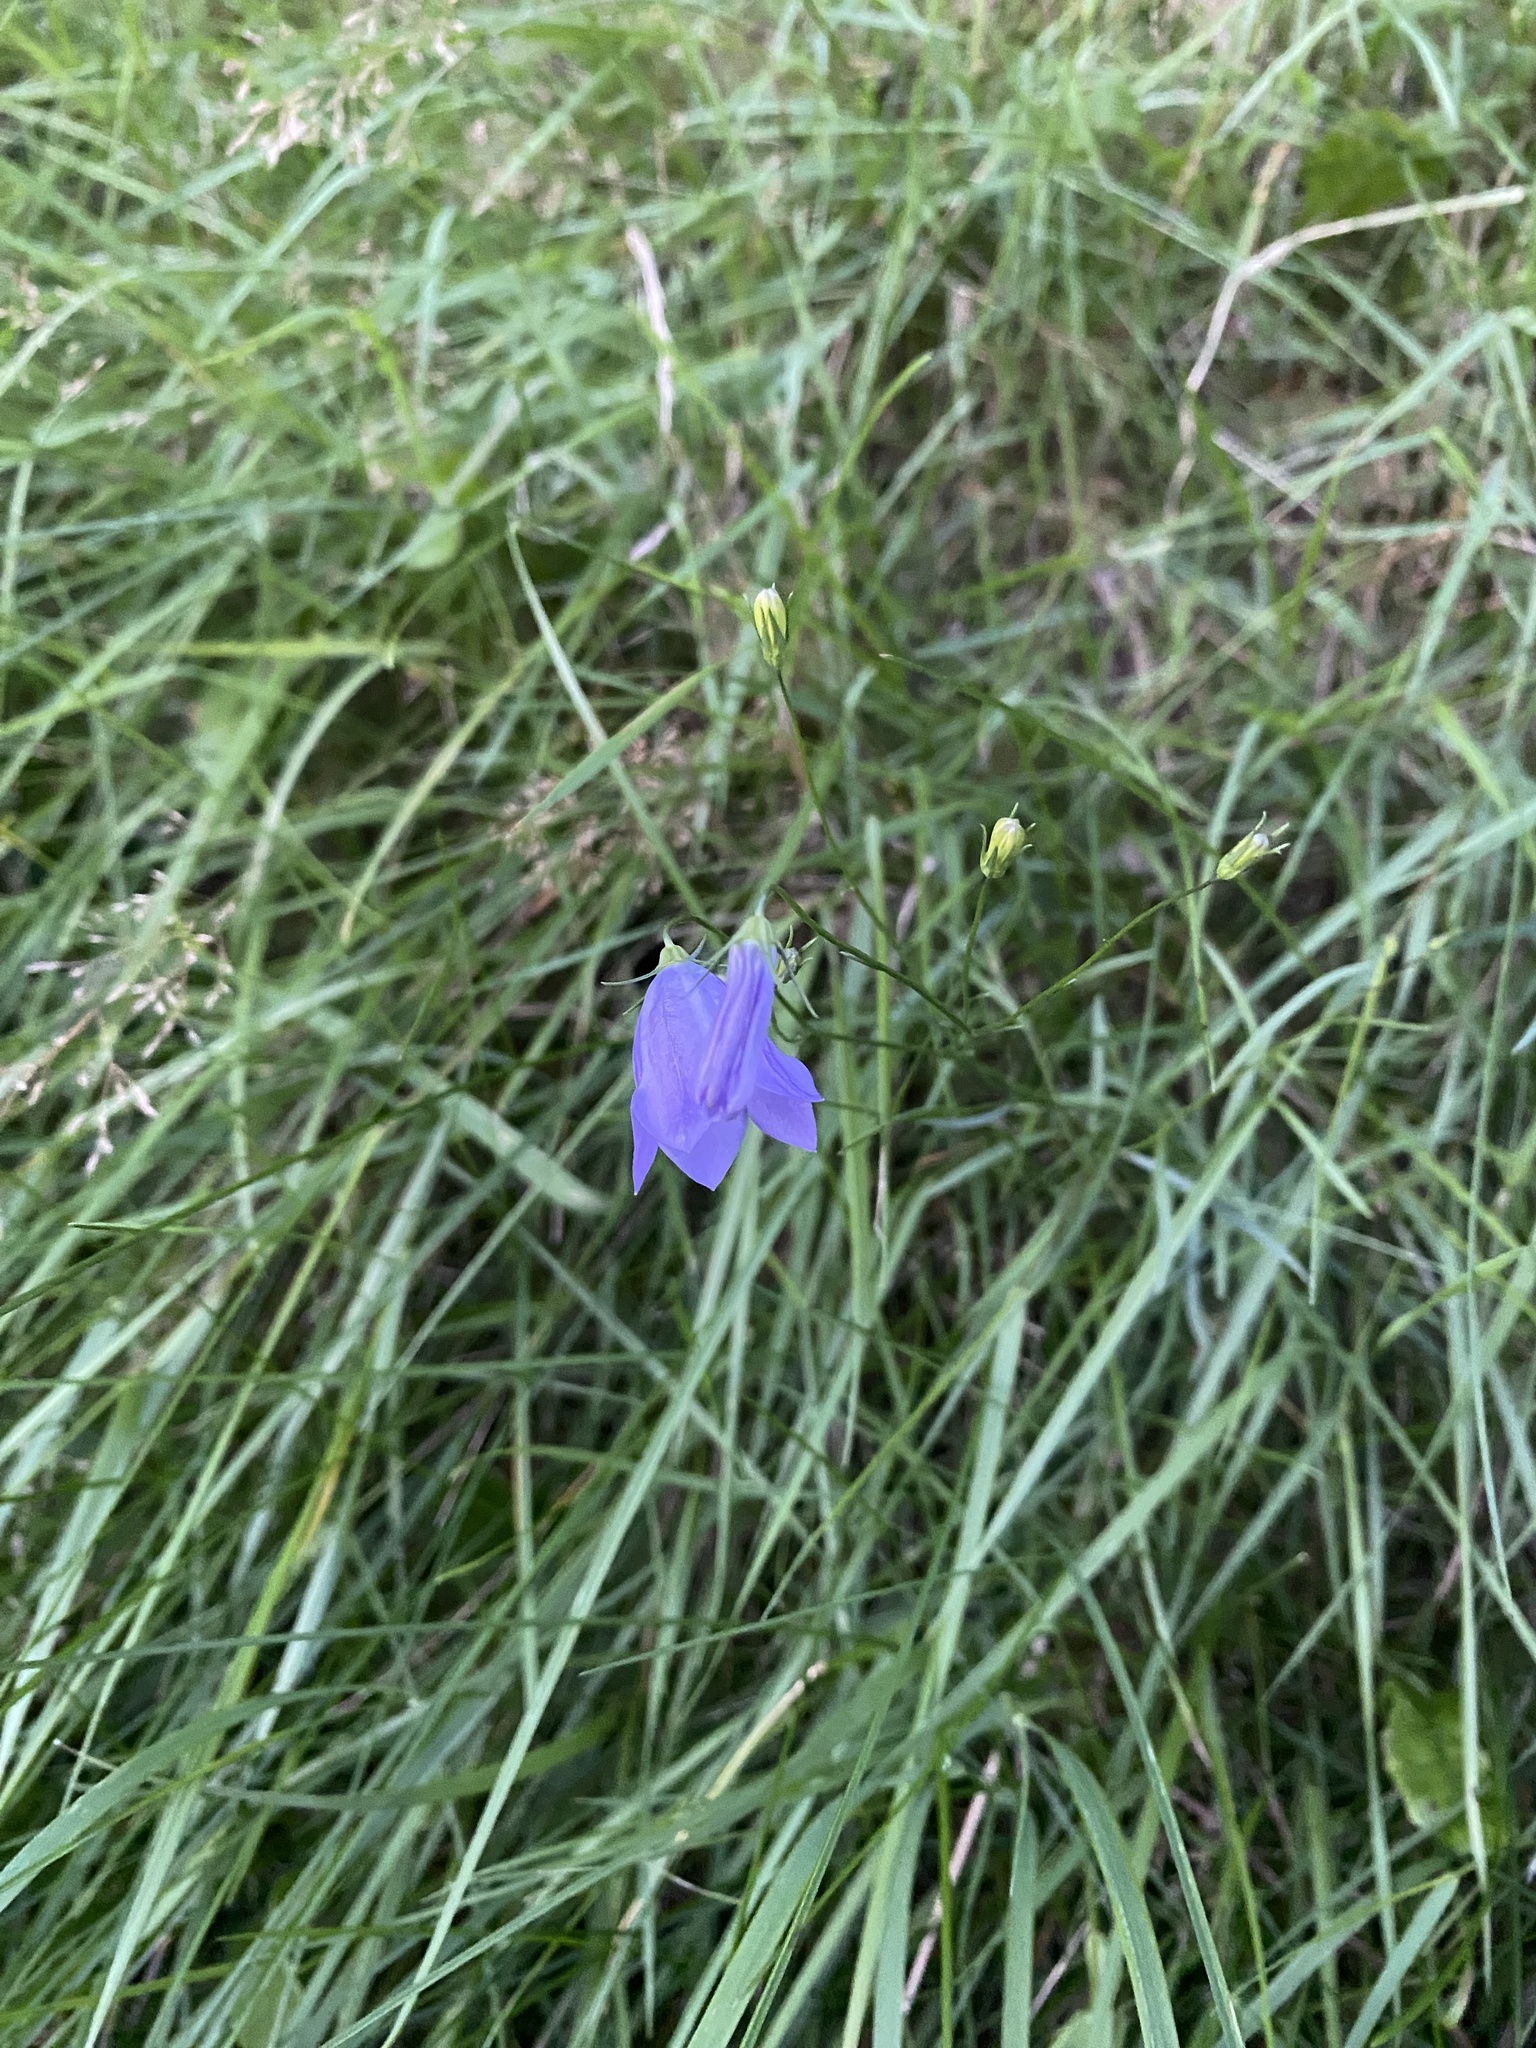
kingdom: Plantae
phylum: Tracheophyta
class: Magnoliopsida
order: Asterales
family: Campanulaceae
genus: Campanula
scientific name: Campanula rotundifolia
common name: Harebell
